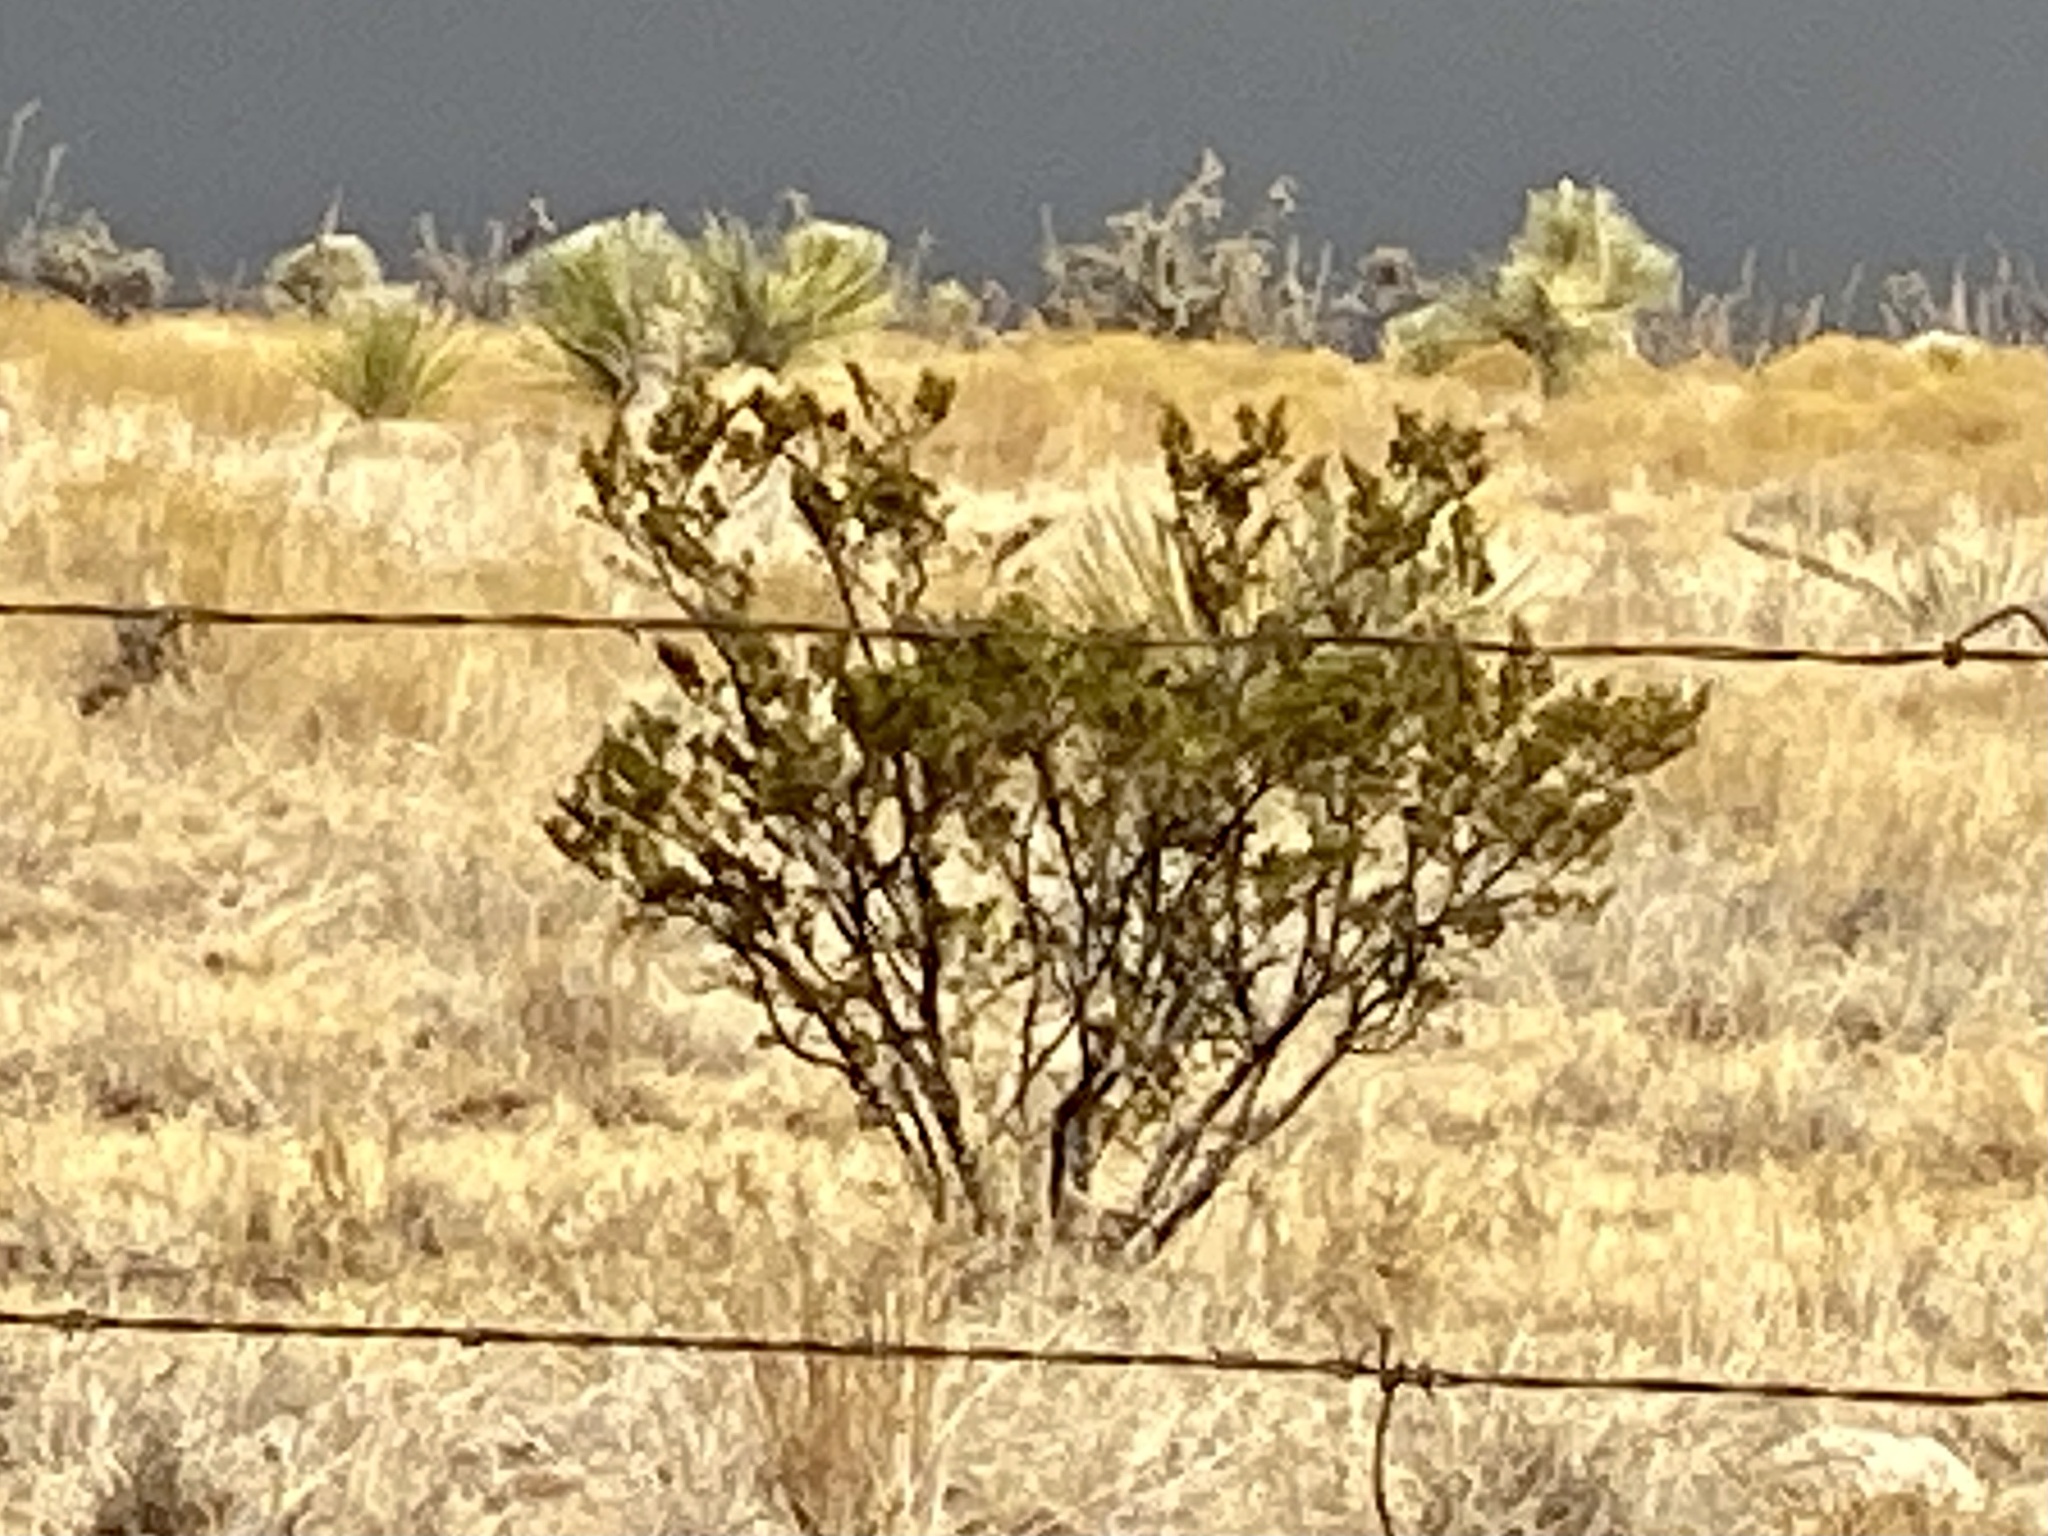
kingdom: Plantae
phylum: Tracheophyta
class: Magnoliopsida
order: Zygophyllales
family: Zygophyllaceae
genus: Larrea
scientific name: Larrea tridentata
